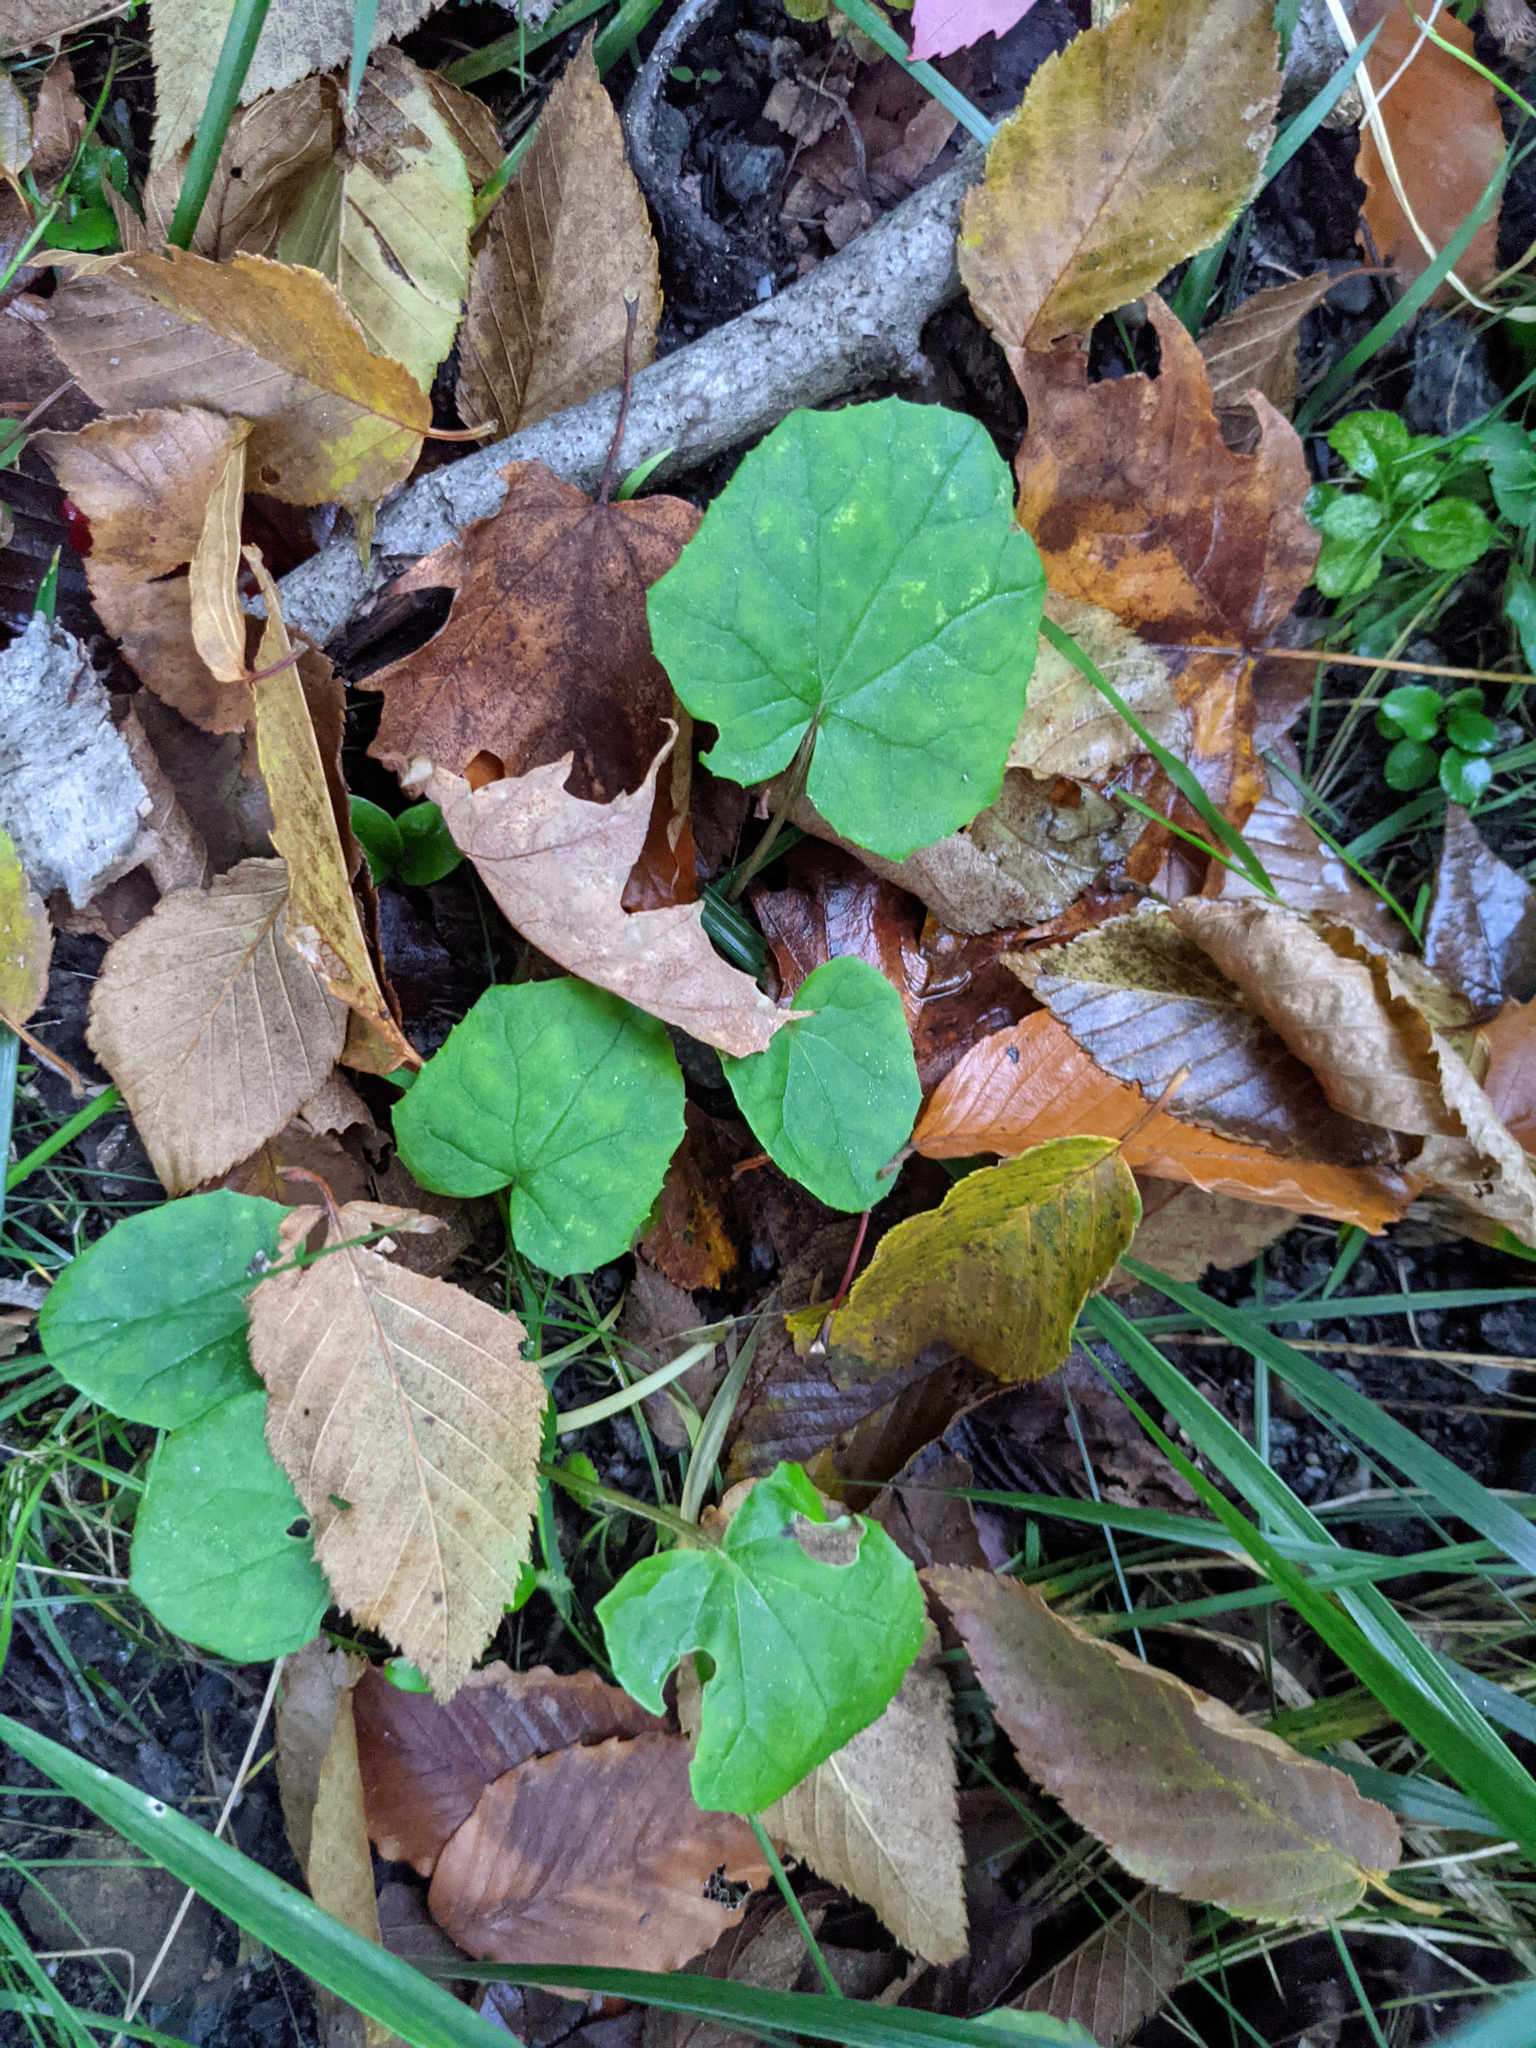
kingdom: Plantae
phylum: Tracheophyta
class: Magnoliopsida
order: Asterales
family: Asteraceae
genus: Tussilago
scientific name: Tussilago farfara
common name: Coltsfoot
